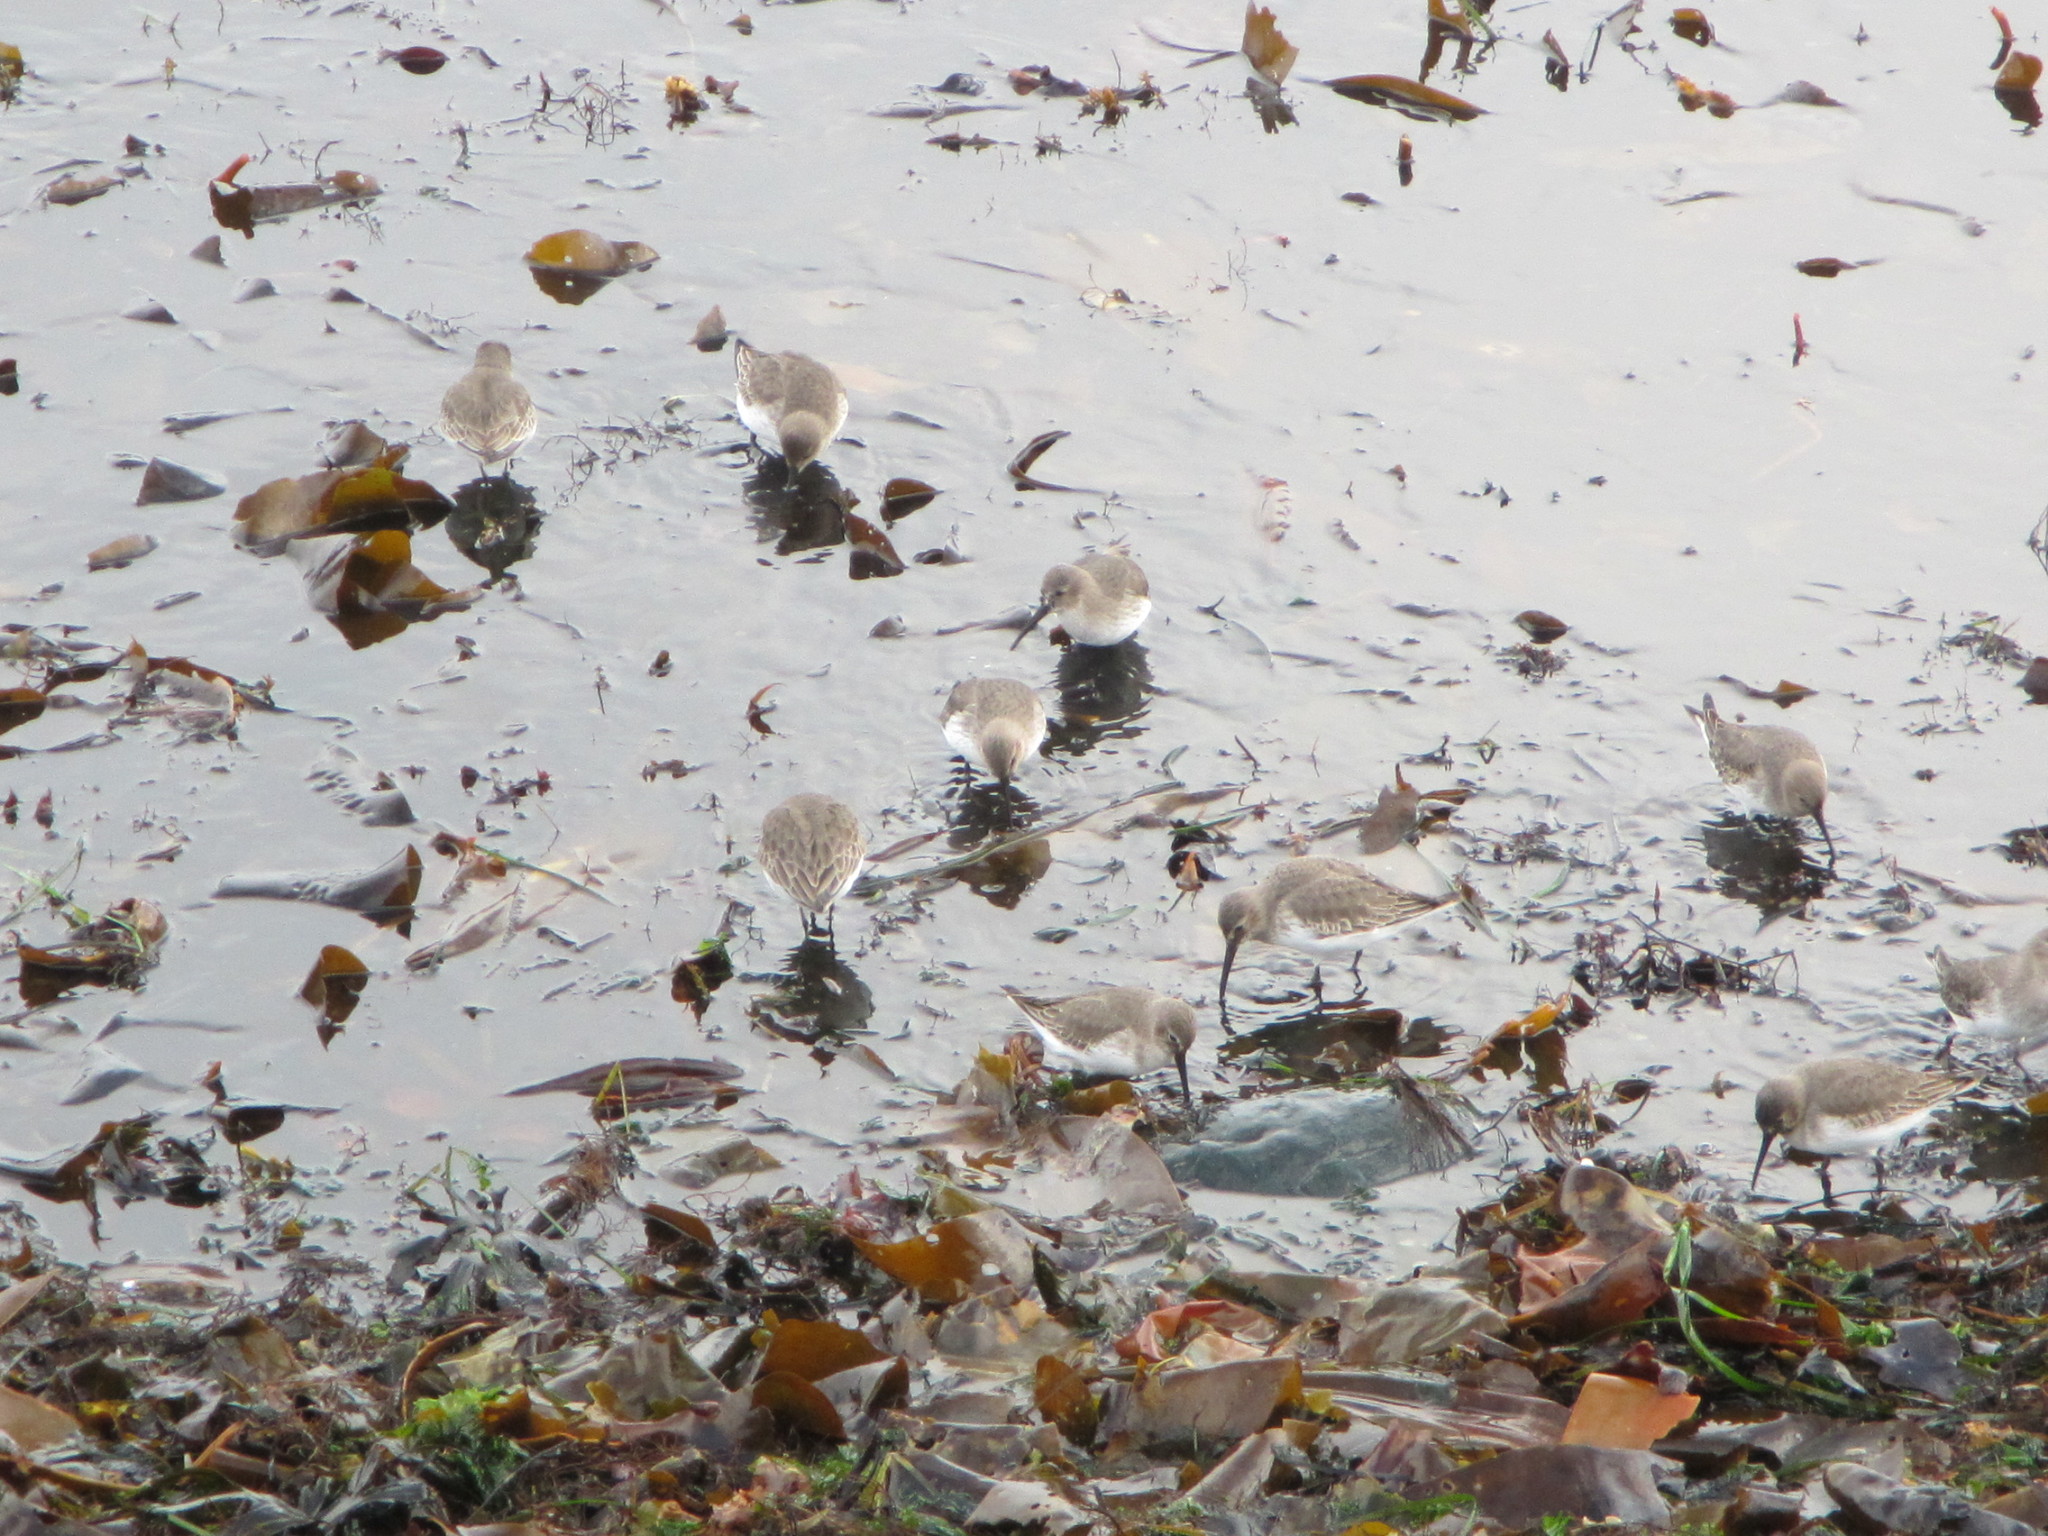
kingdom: Animalia
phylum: Chordata
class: Aves
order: Charadriiformes
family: Scolopacidae
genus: Calidris
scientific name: Calidris alpina
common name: Dunlin
